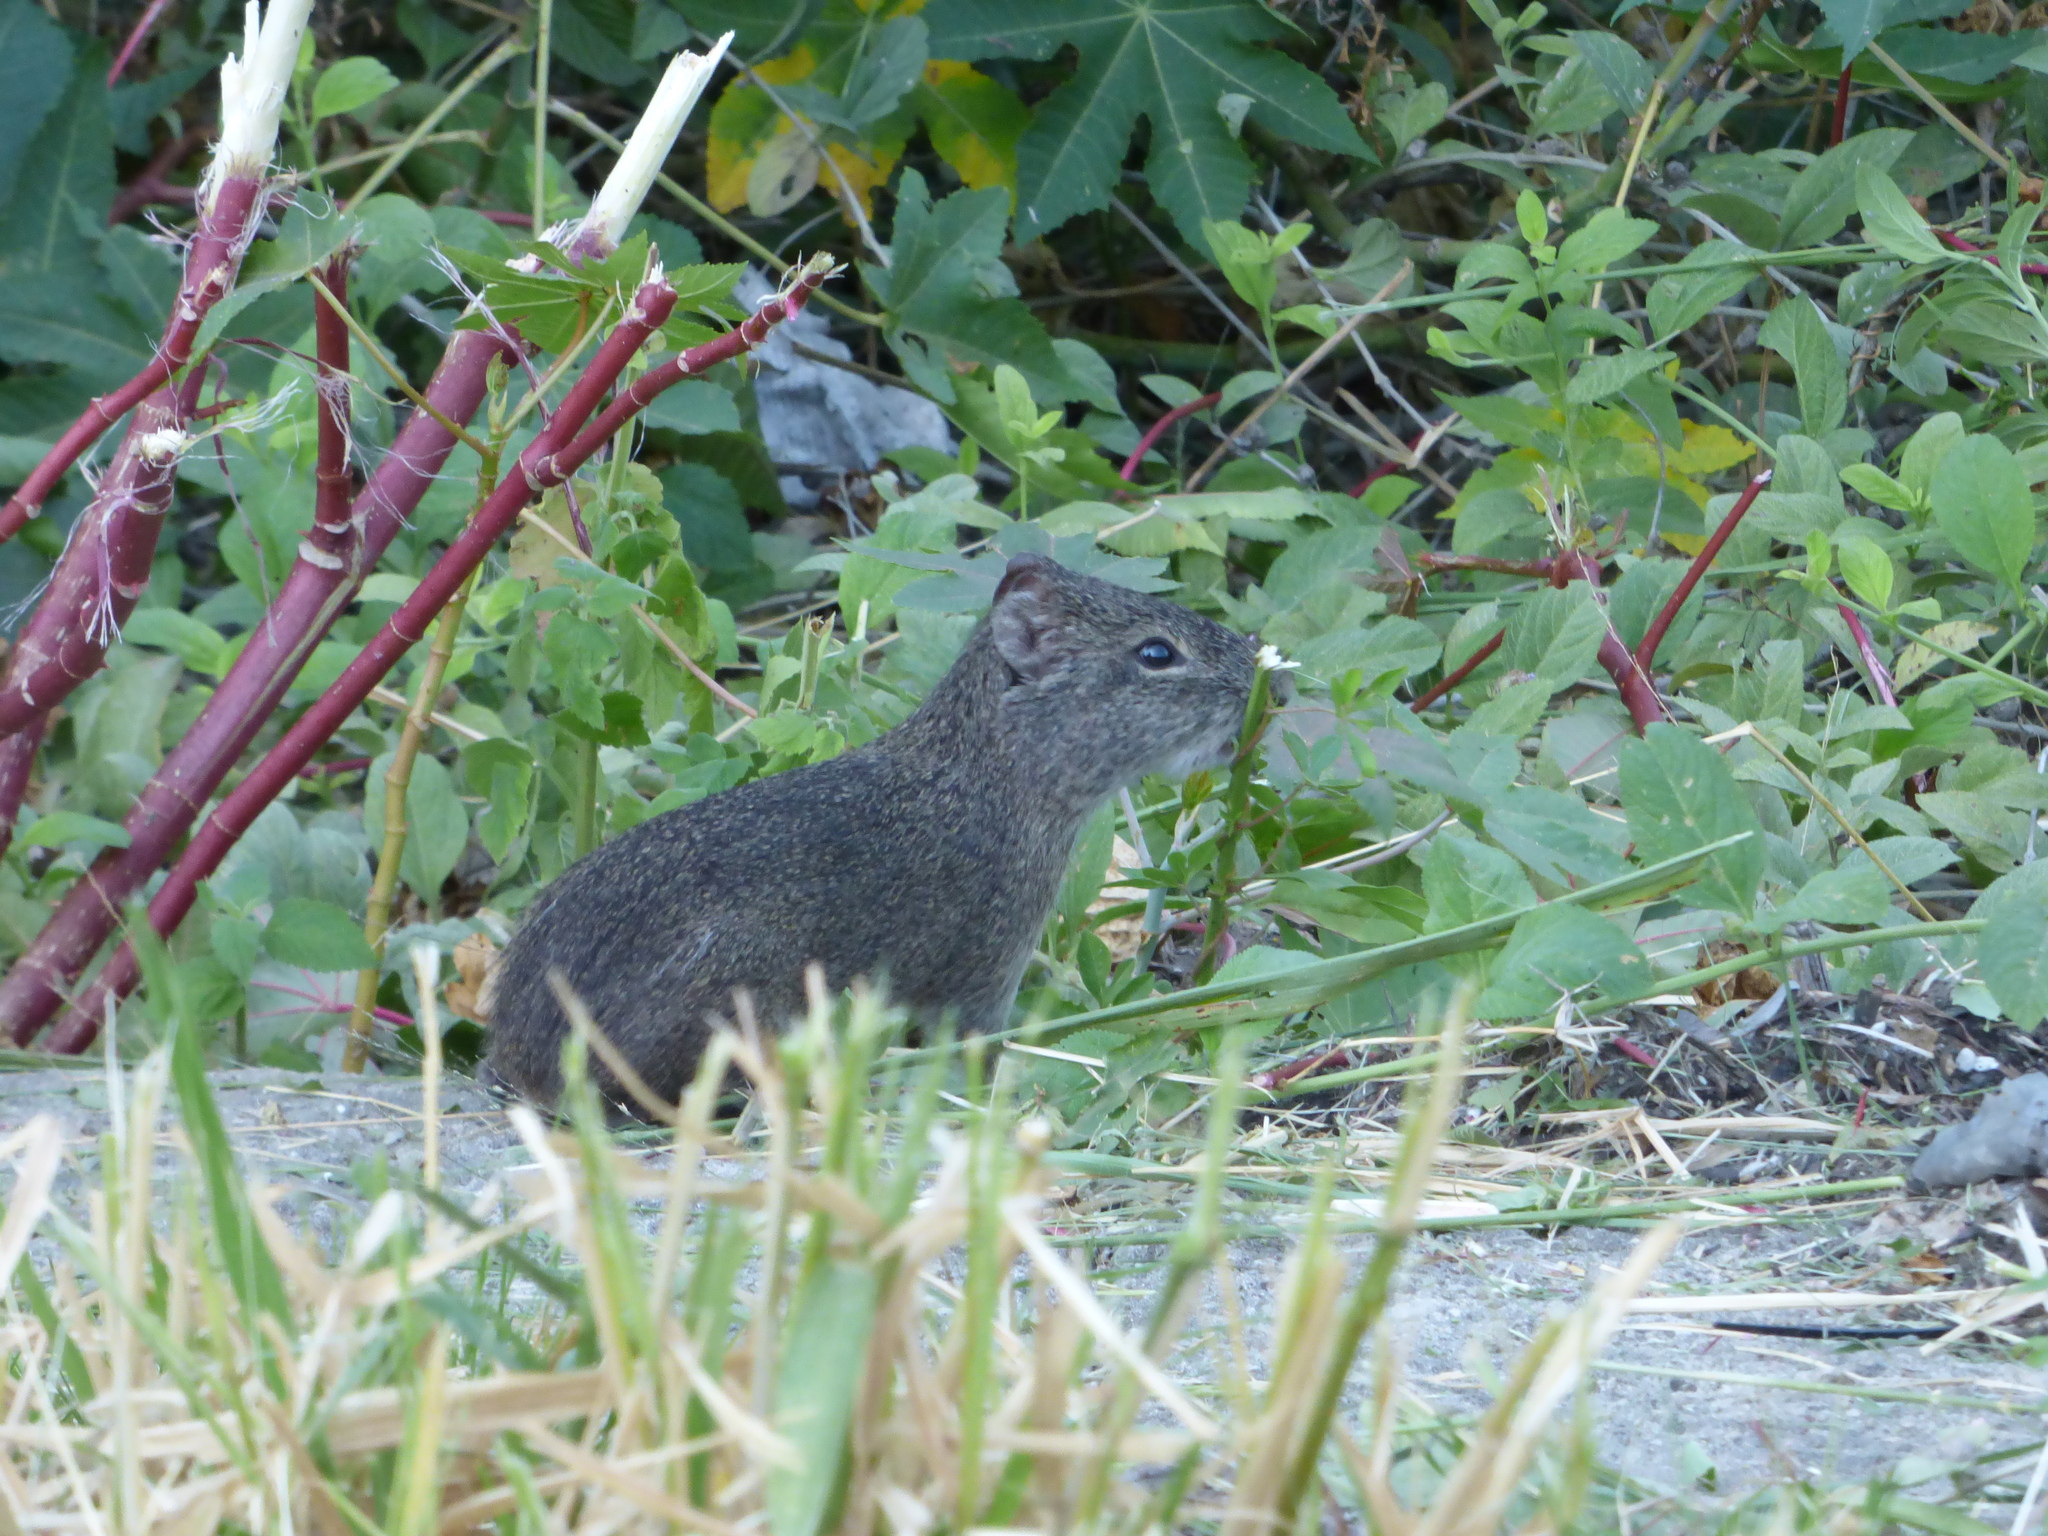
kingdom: Animalia
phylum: Chordata
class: Mammalia
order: Rodentia
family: Caviidae
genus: Cavia
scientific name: Cavia aperea
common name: Brazilian guinea pig
